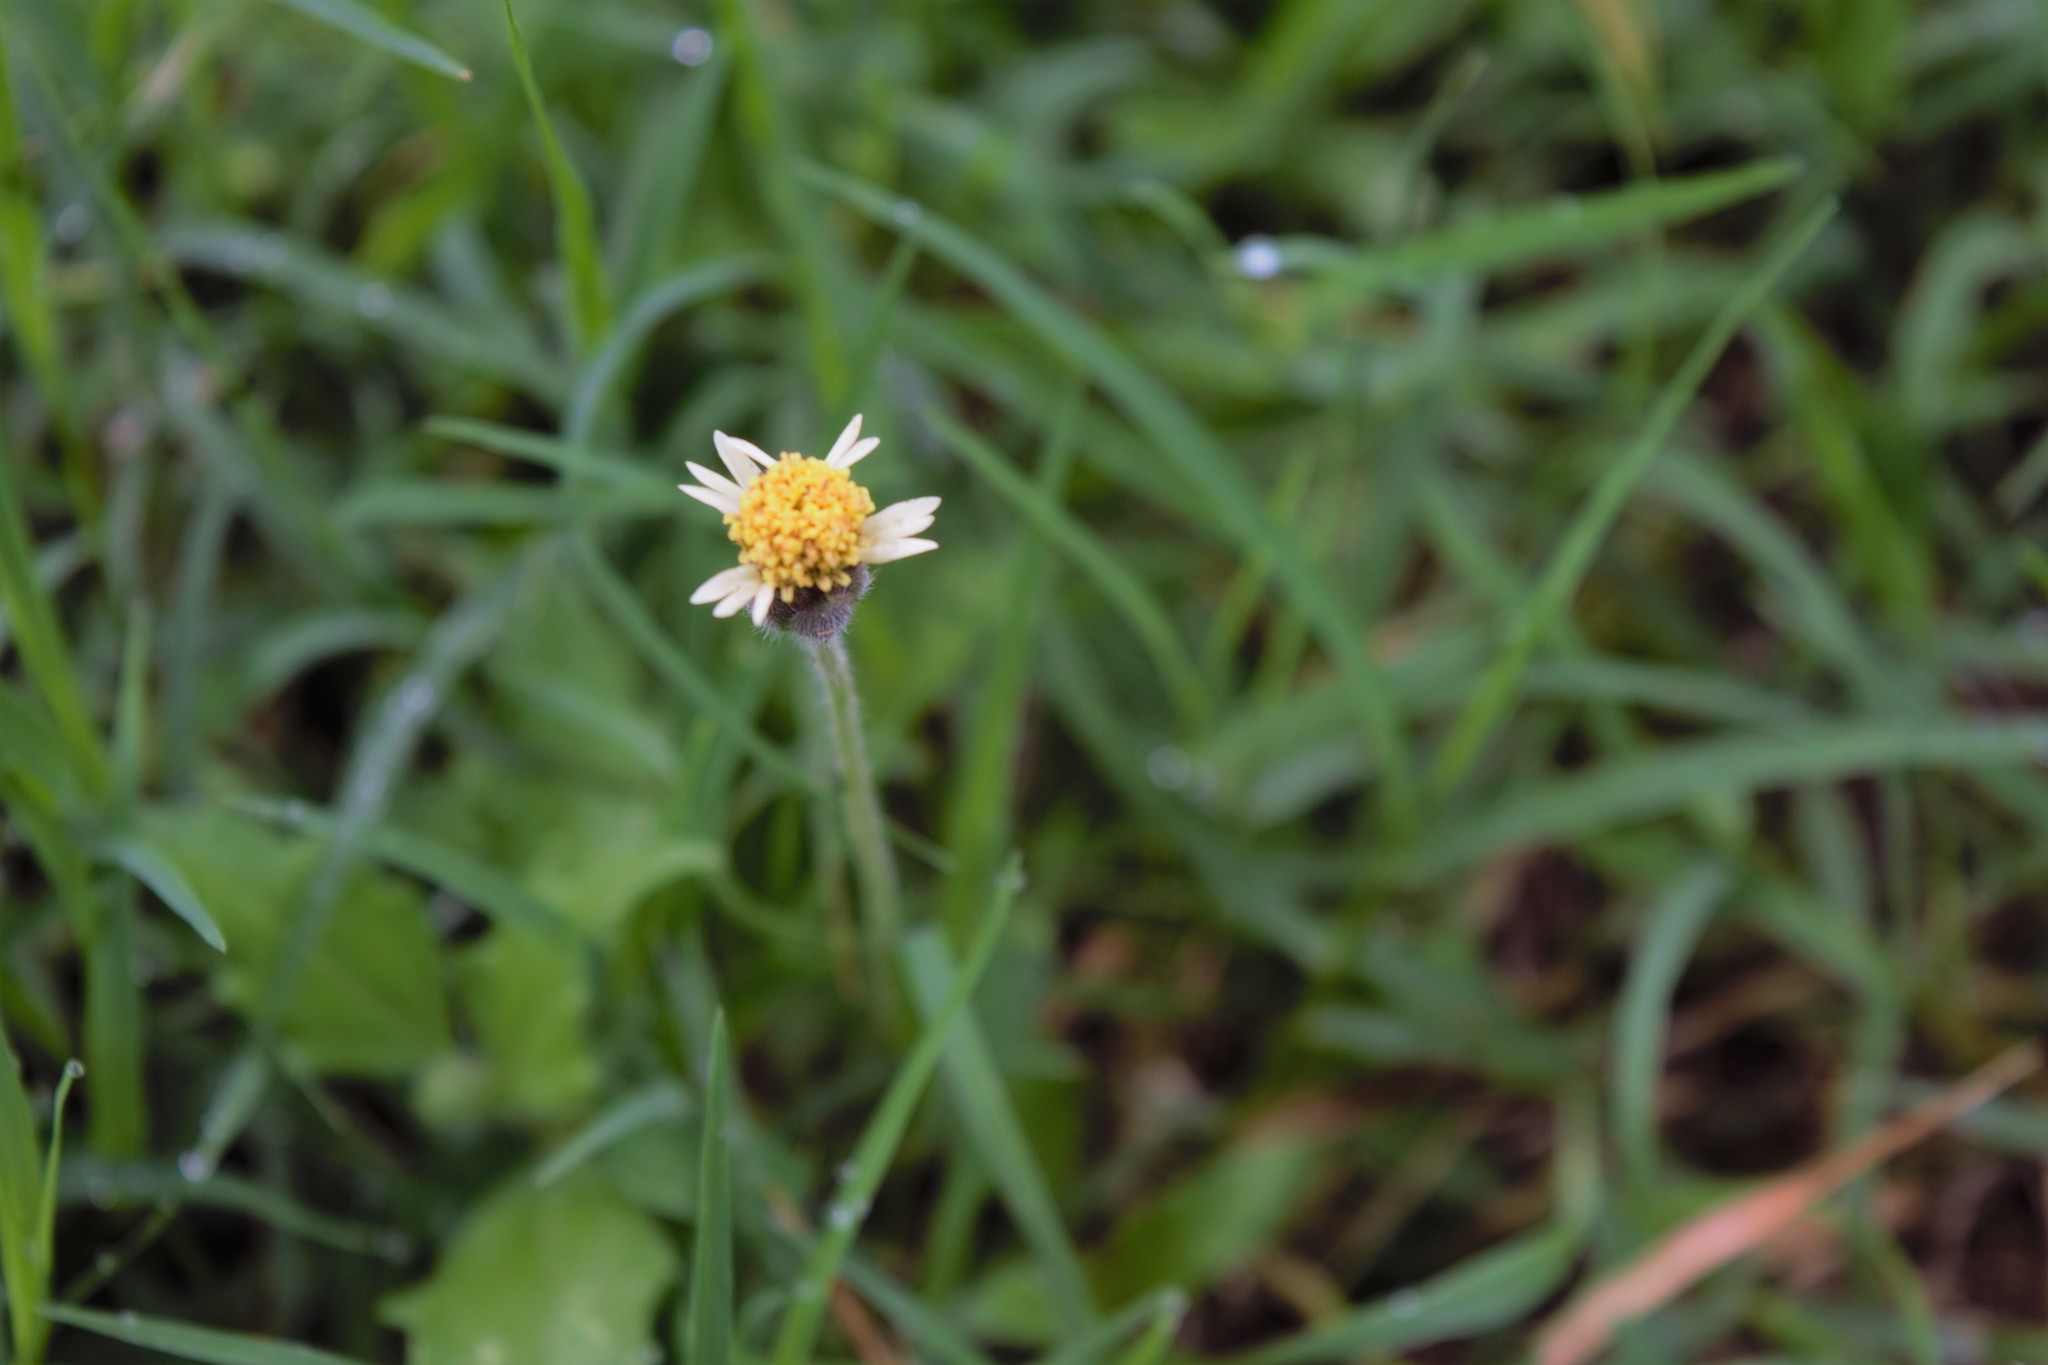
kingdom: Plantae
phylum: Tracheophyta
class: Magnoliopsida
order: Asterales
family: Asteraceae
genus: Tridax
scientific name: Tridax procumbens
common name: Coatbuttons
